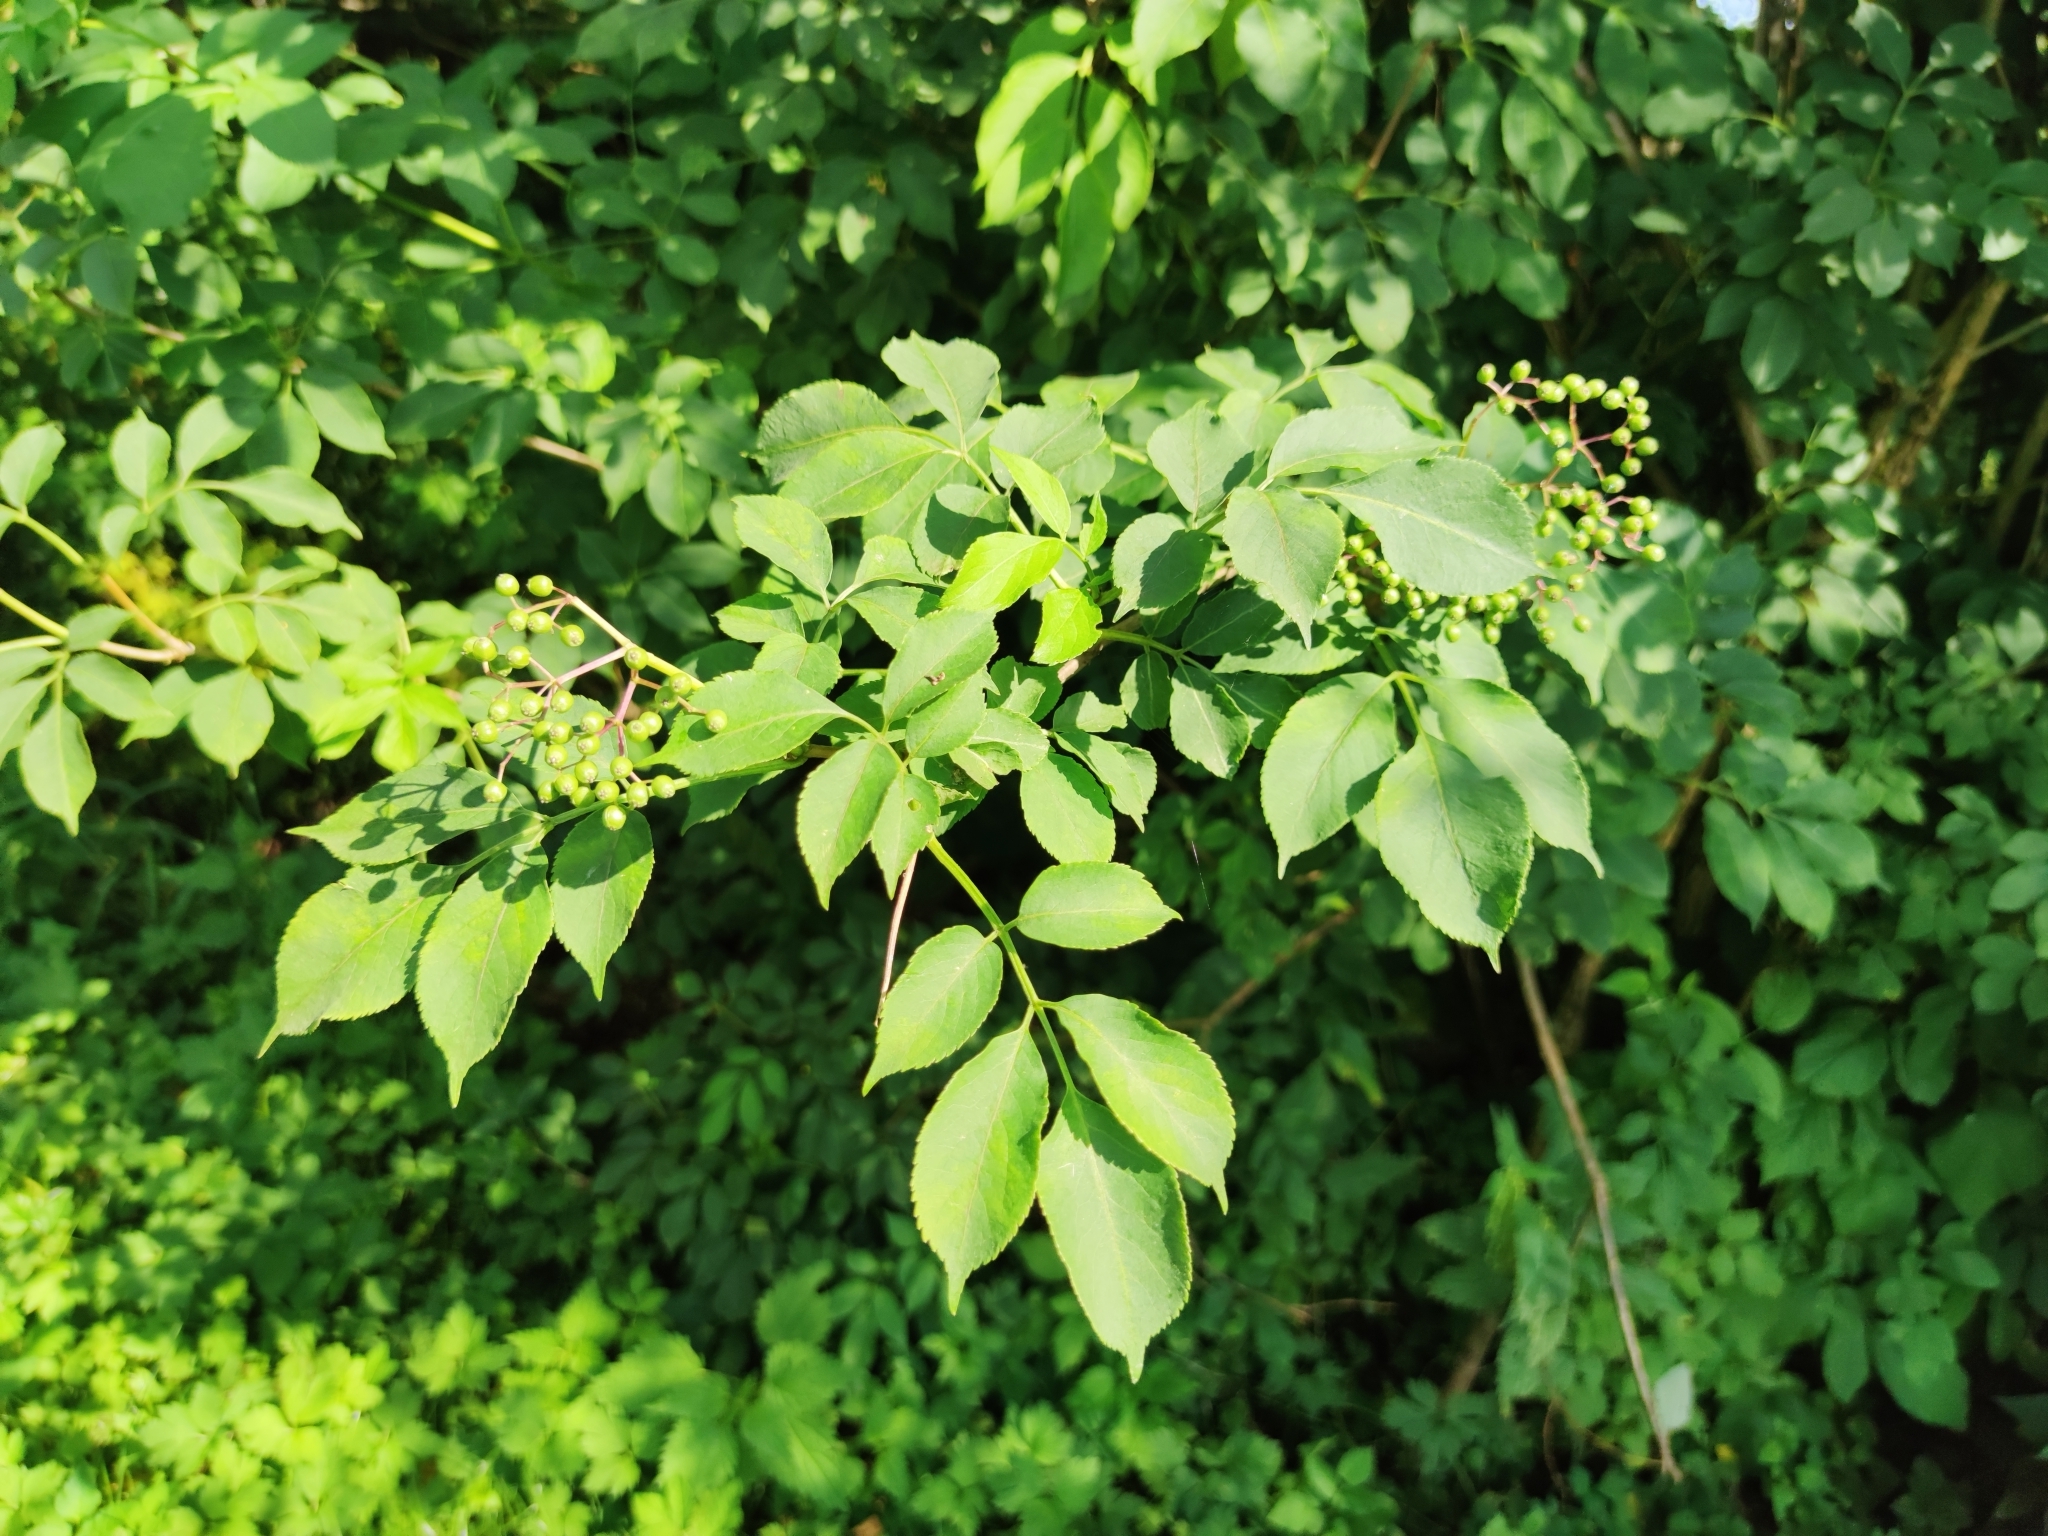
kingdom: Plantae
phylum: Tracheophyta
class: Magnoliopsida
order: Dipsacales
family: Viburnaceae
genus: Sambucus
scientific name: Sambucus nigra
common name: Elder
